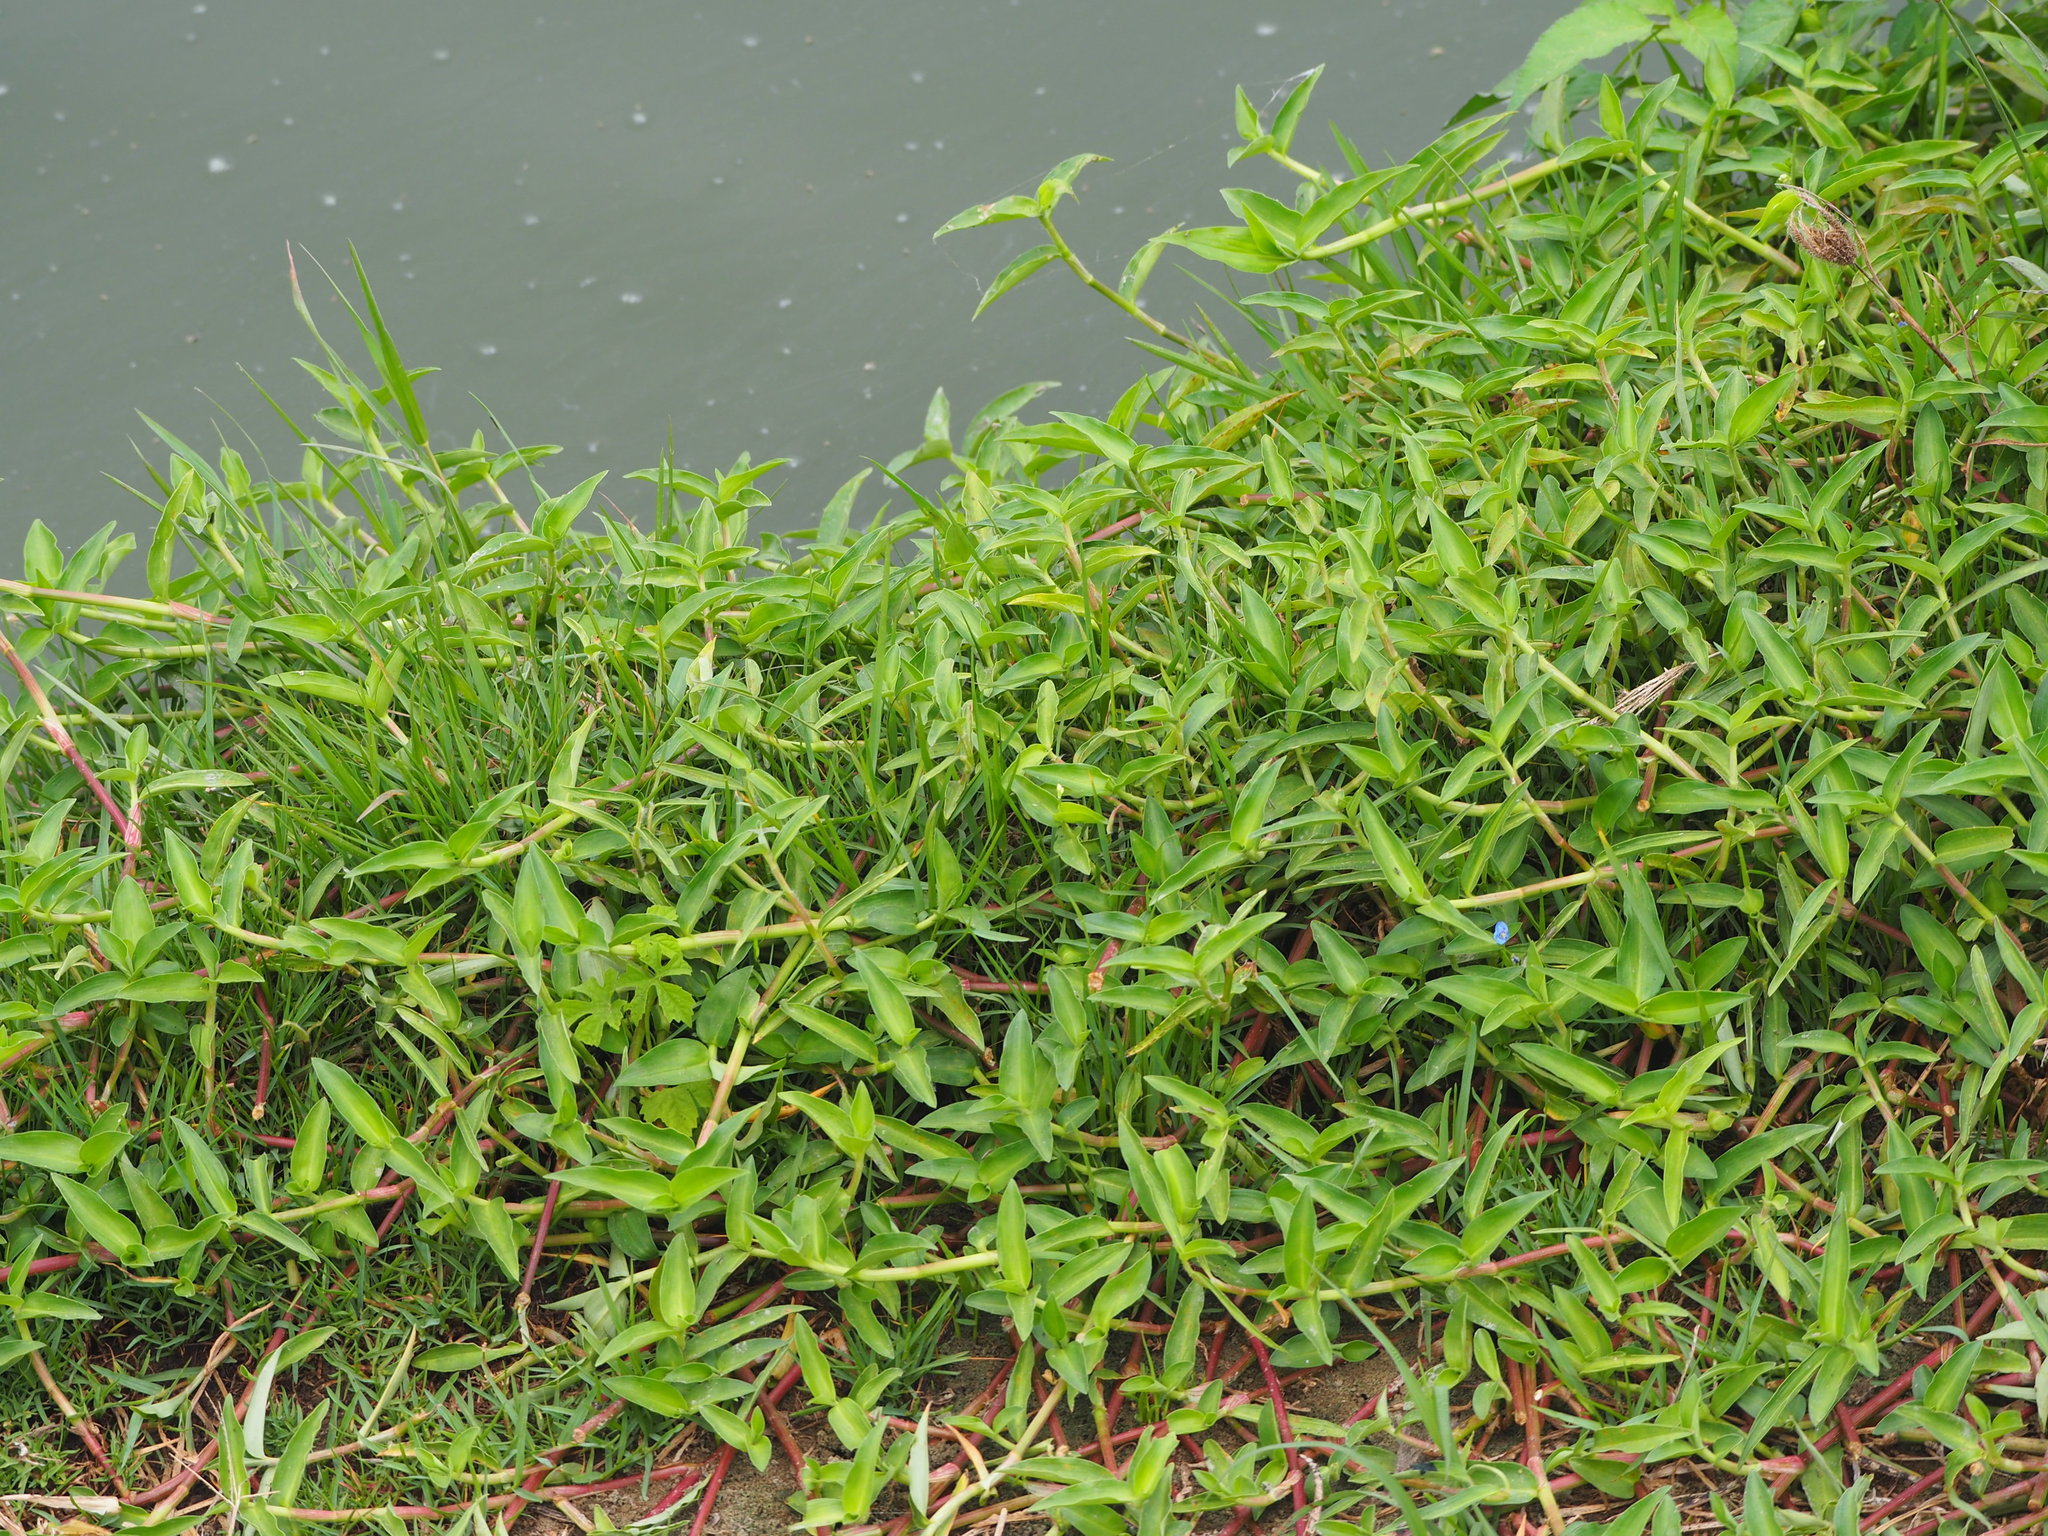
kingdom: Plantae
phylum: Tracheophyta
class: Liliopsida
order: Commelinales
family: Commelinaceae
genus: Commelina
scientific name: Commelina diffusa
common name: Climbing dayflower
